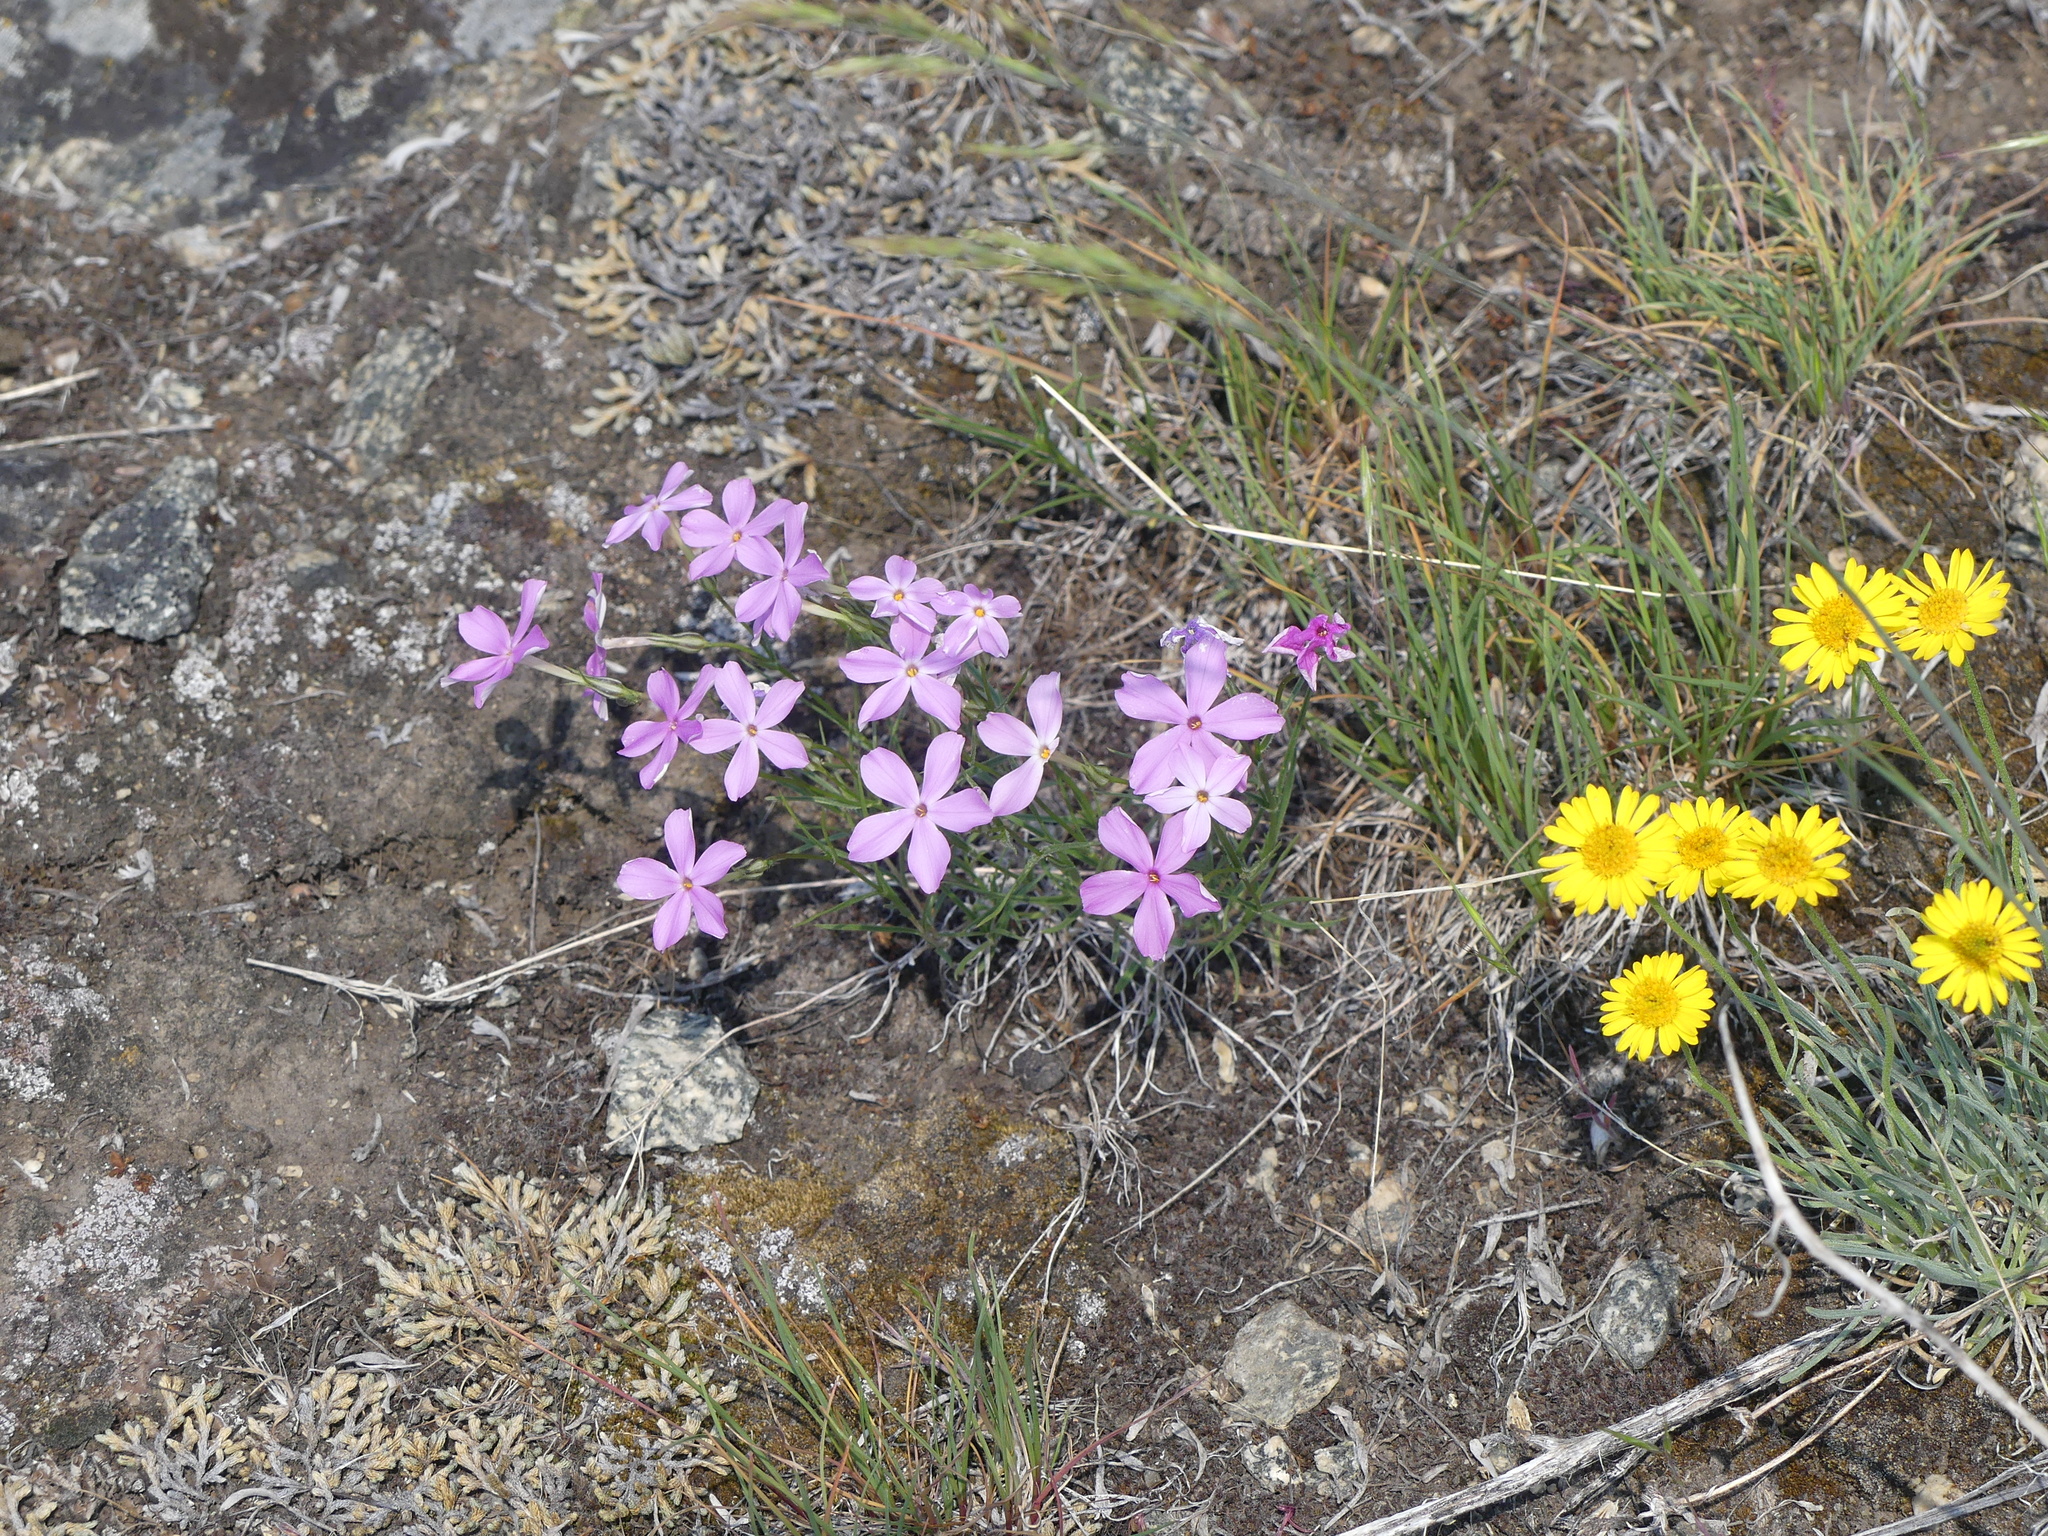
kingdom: Plantae
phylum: Tracheophyta
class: Magnoliopsida
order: Ericales
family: Polemoniaceae
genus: Phlox
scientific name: Phlox longifolia
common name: Longleaf phlox
